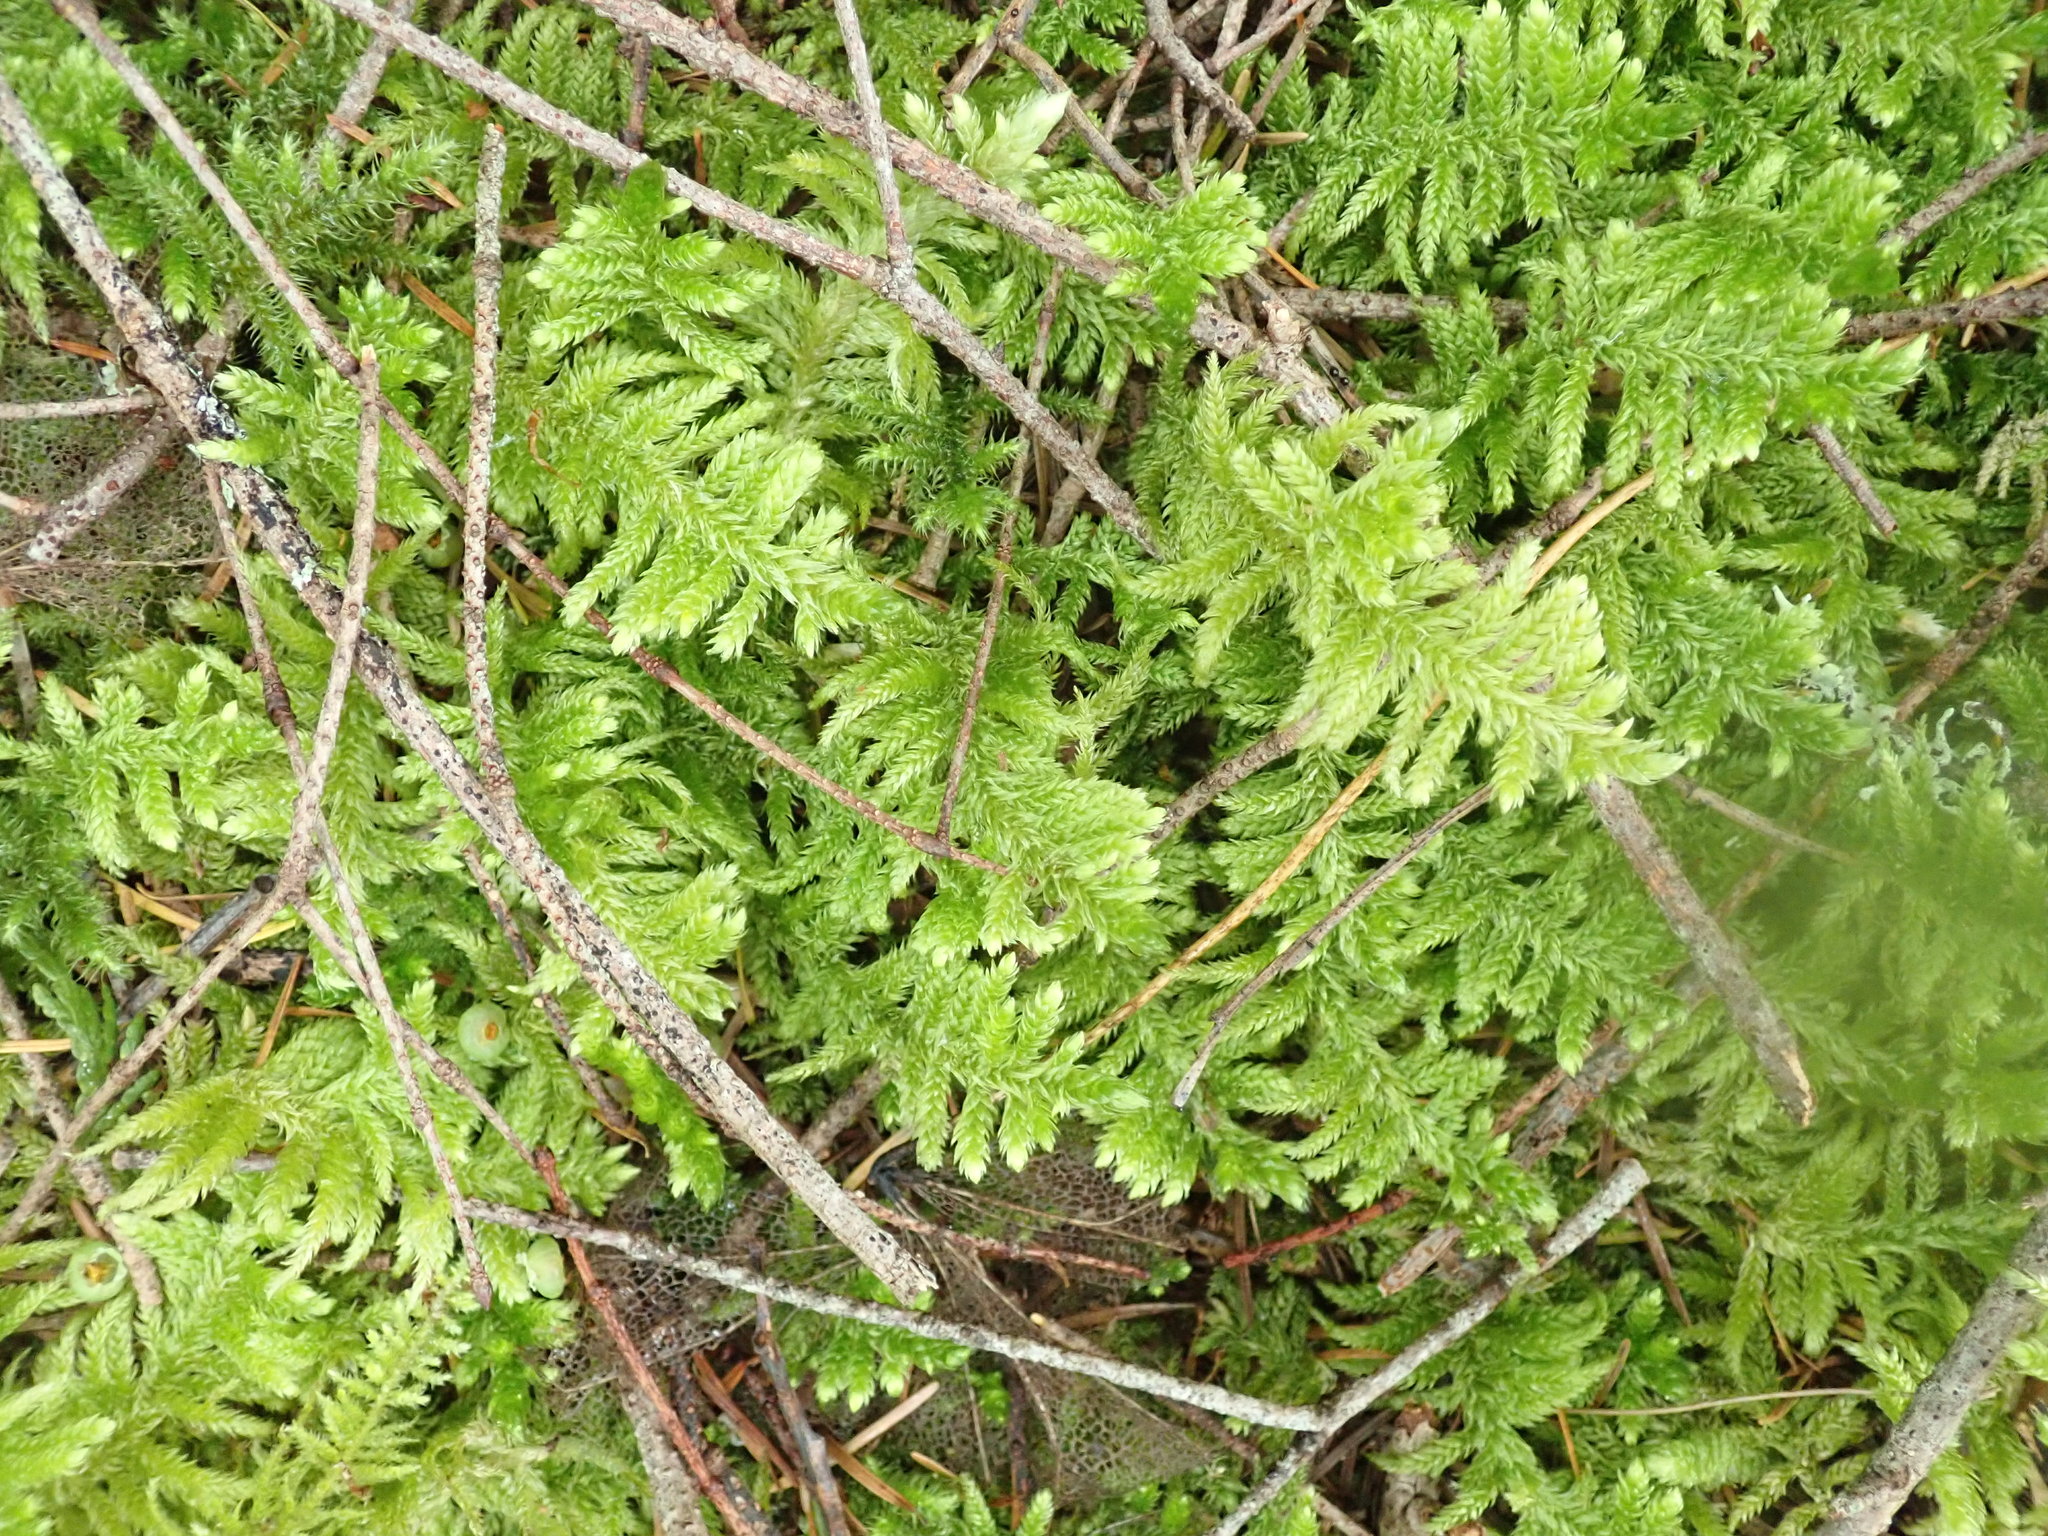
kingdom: Plantae
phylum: Bryophyta
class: Bryopsida
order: Hypnales
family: Brachytheciaceae
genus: Homalothecium
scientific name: Homalothecium megaptilum
